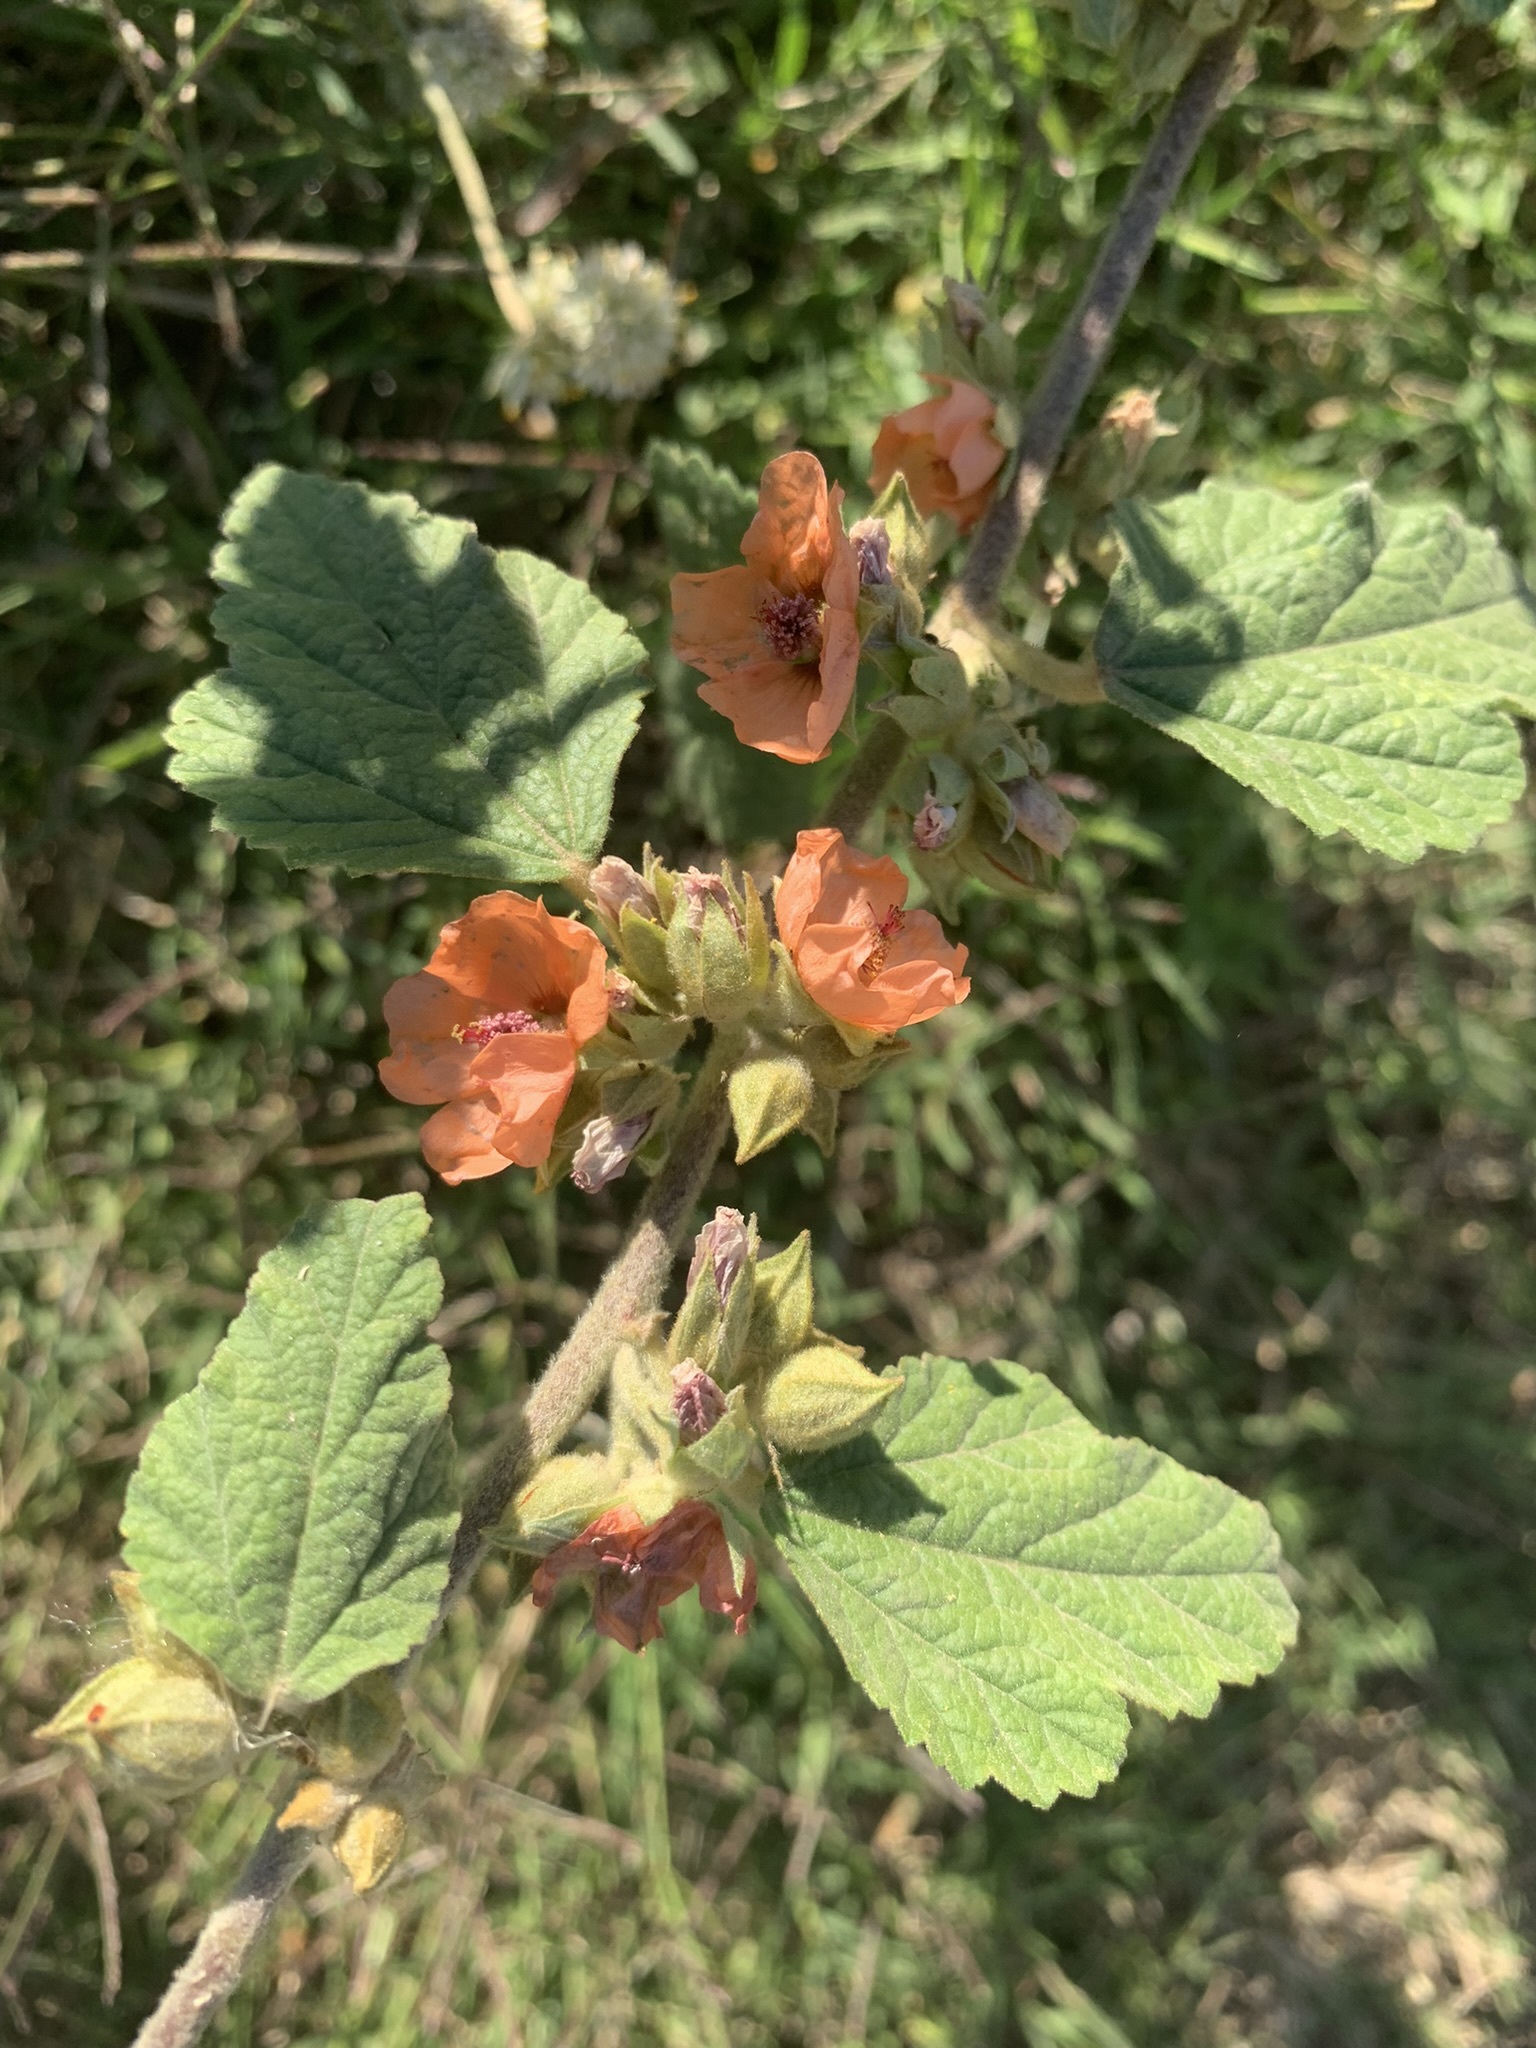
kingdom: Plantae
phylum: Tracheophyta
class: Magnoliopsida
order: Malvales
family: Malvaceae
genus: Sphaeralcea
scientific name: Sphaeralcea bonariensis
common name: Latin globemallow
